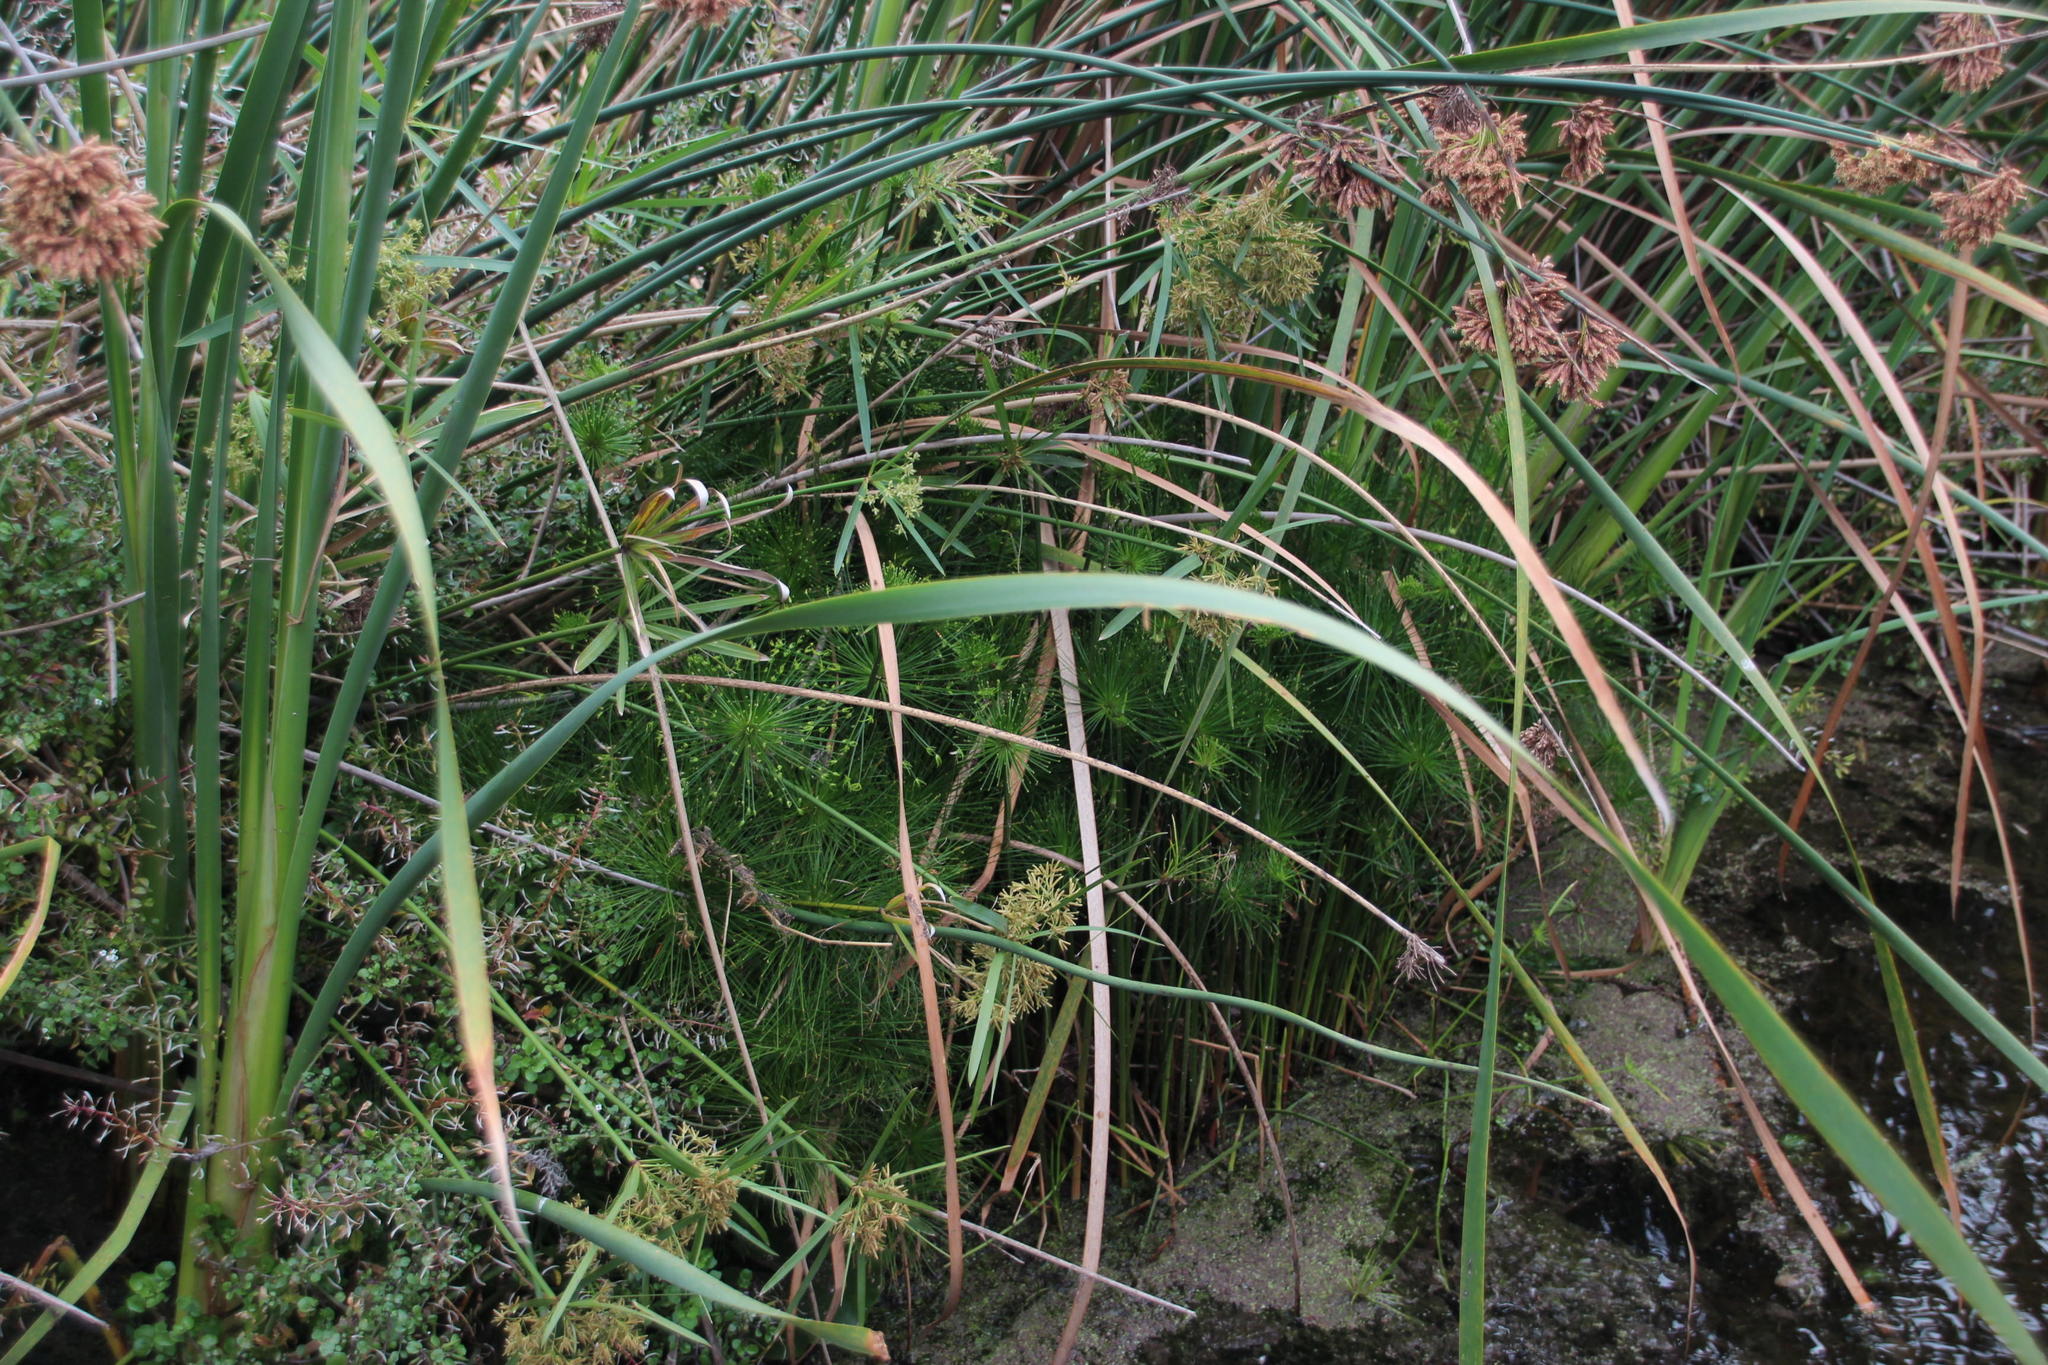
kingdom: Plantae
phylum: Tracheophyta
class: Liliopsida
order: Poales
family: Cyperaceae
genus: Cyperus
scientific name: Cyperus prolifer
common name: Miniature flatsedge
